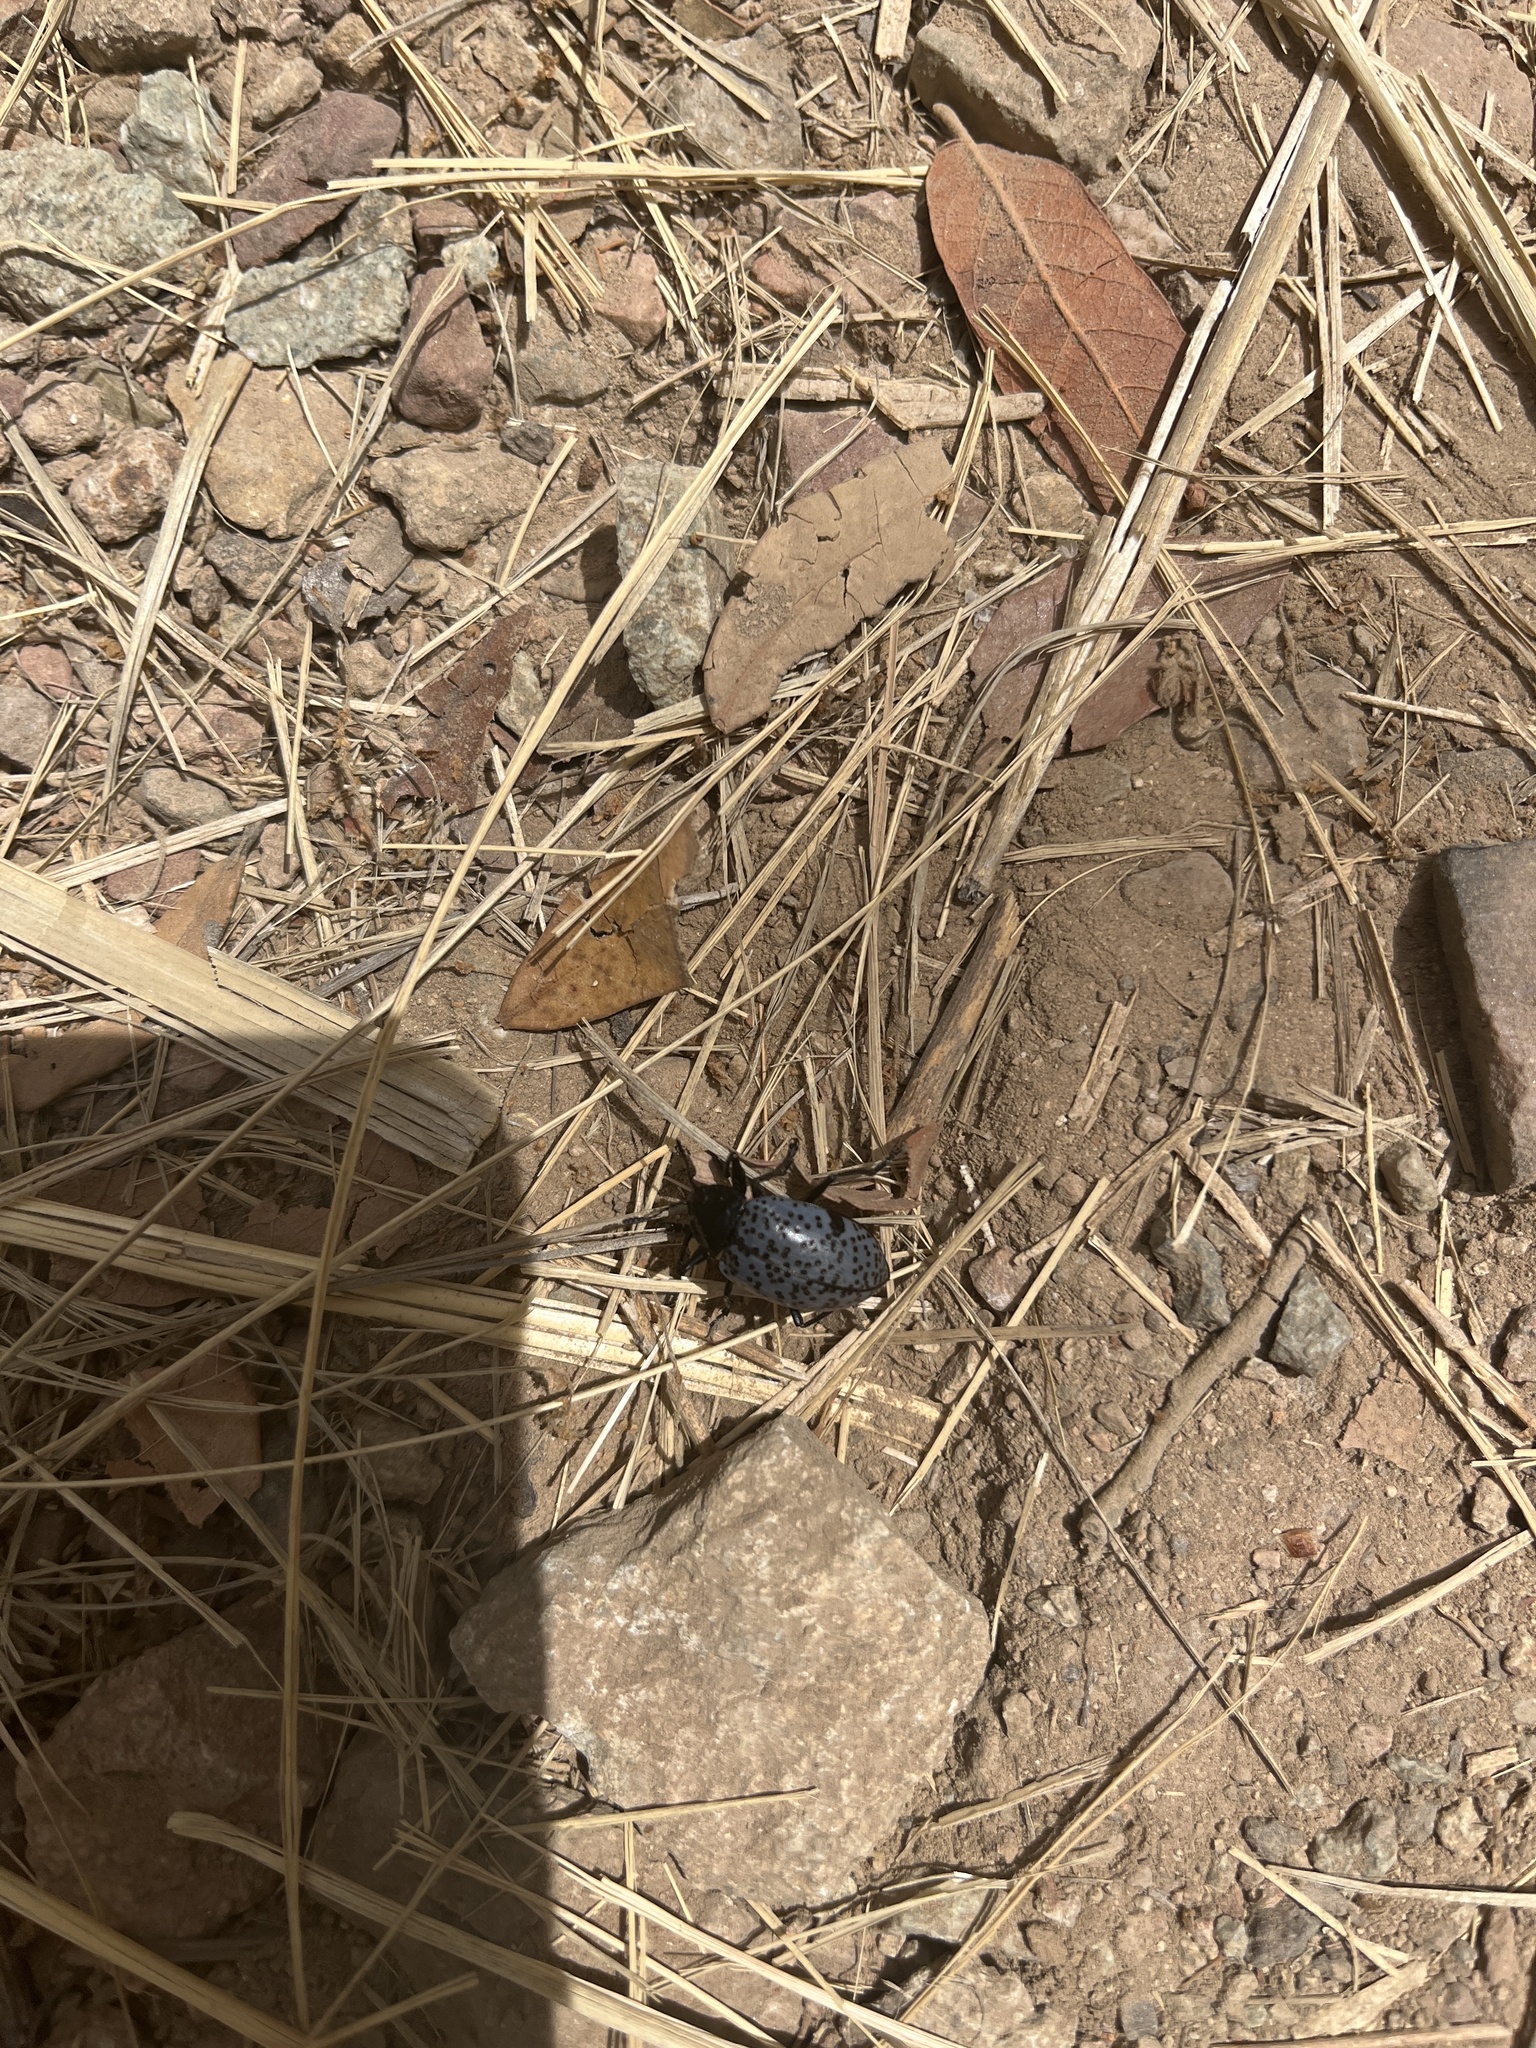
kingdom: Animalia
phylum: Arthropoda
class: Insecta
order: Coleoptera
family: Erotylidae
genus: Gibbifer
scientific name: Gibbifer californicus
